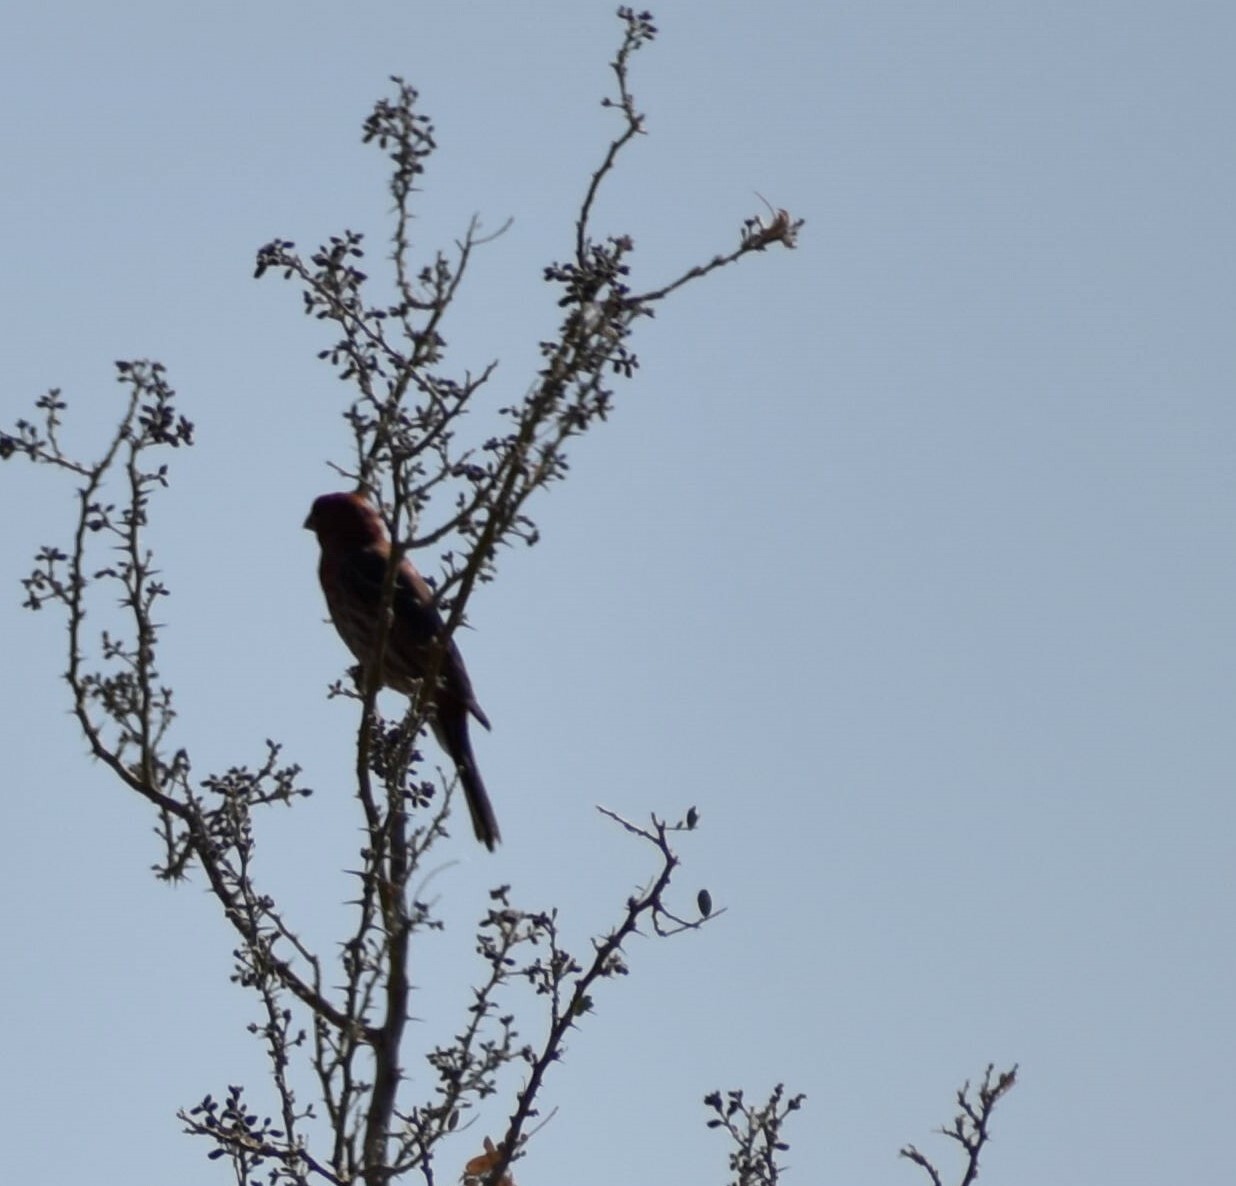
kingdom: Animalia
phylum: Chordata
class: Aves
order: Passeriformes
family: Fringillidae
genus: Haemorhous
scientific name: Haemorhous mexicanus
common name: House finch
